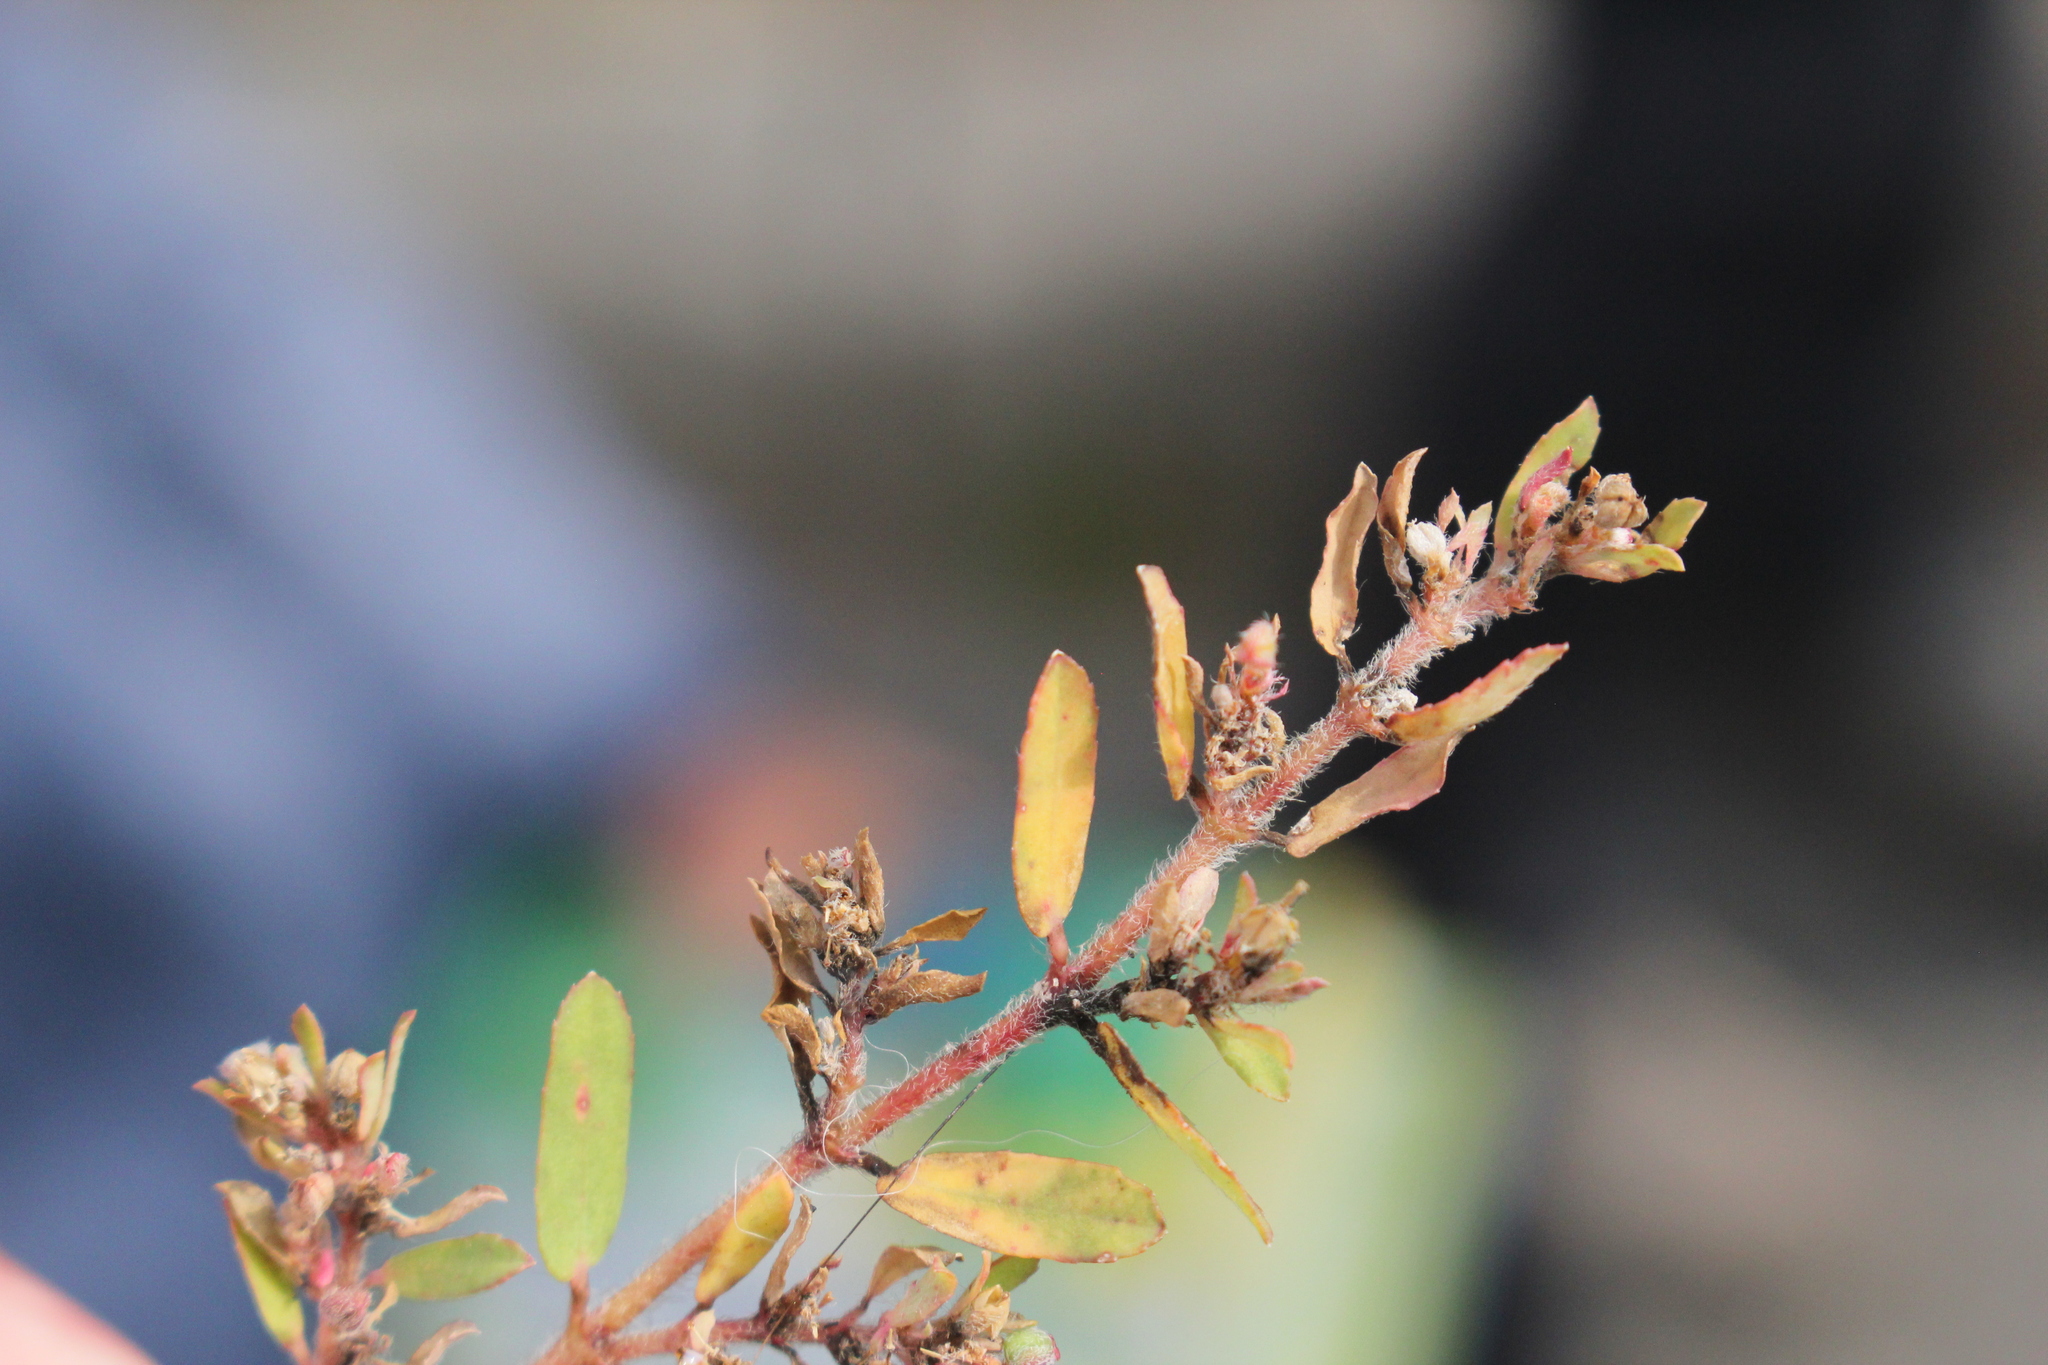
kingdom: Plantae
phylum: Tracheophyta
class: Magnoliopsida
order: Malpighiales
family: Euphorbiaceae
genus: Euphorbia
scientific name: Euphorbia maculata
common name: Spotted spurge
